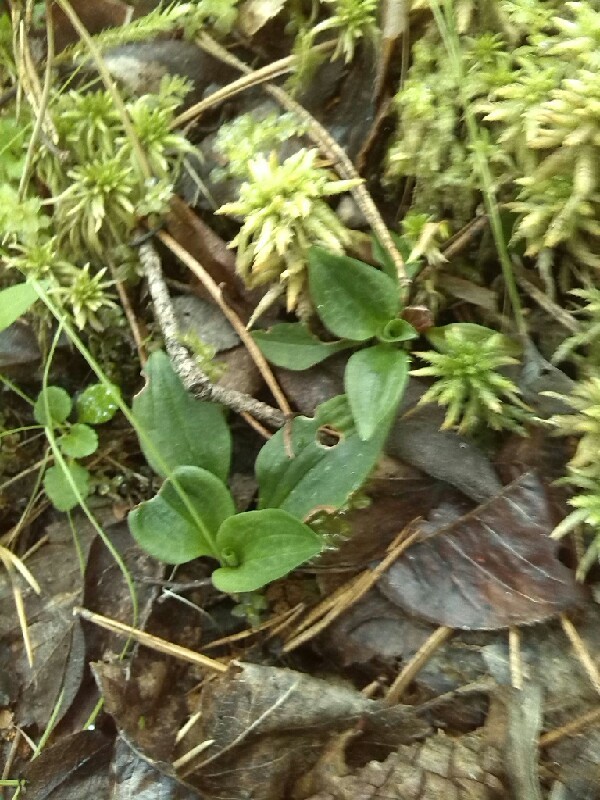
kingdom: Plantae
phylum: Tracheophyta
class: Liliopsida
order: Asparagales
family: Orchidaceae
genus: Goodyera
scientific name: Goodyera repens
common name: Creeping lady's-tresses
